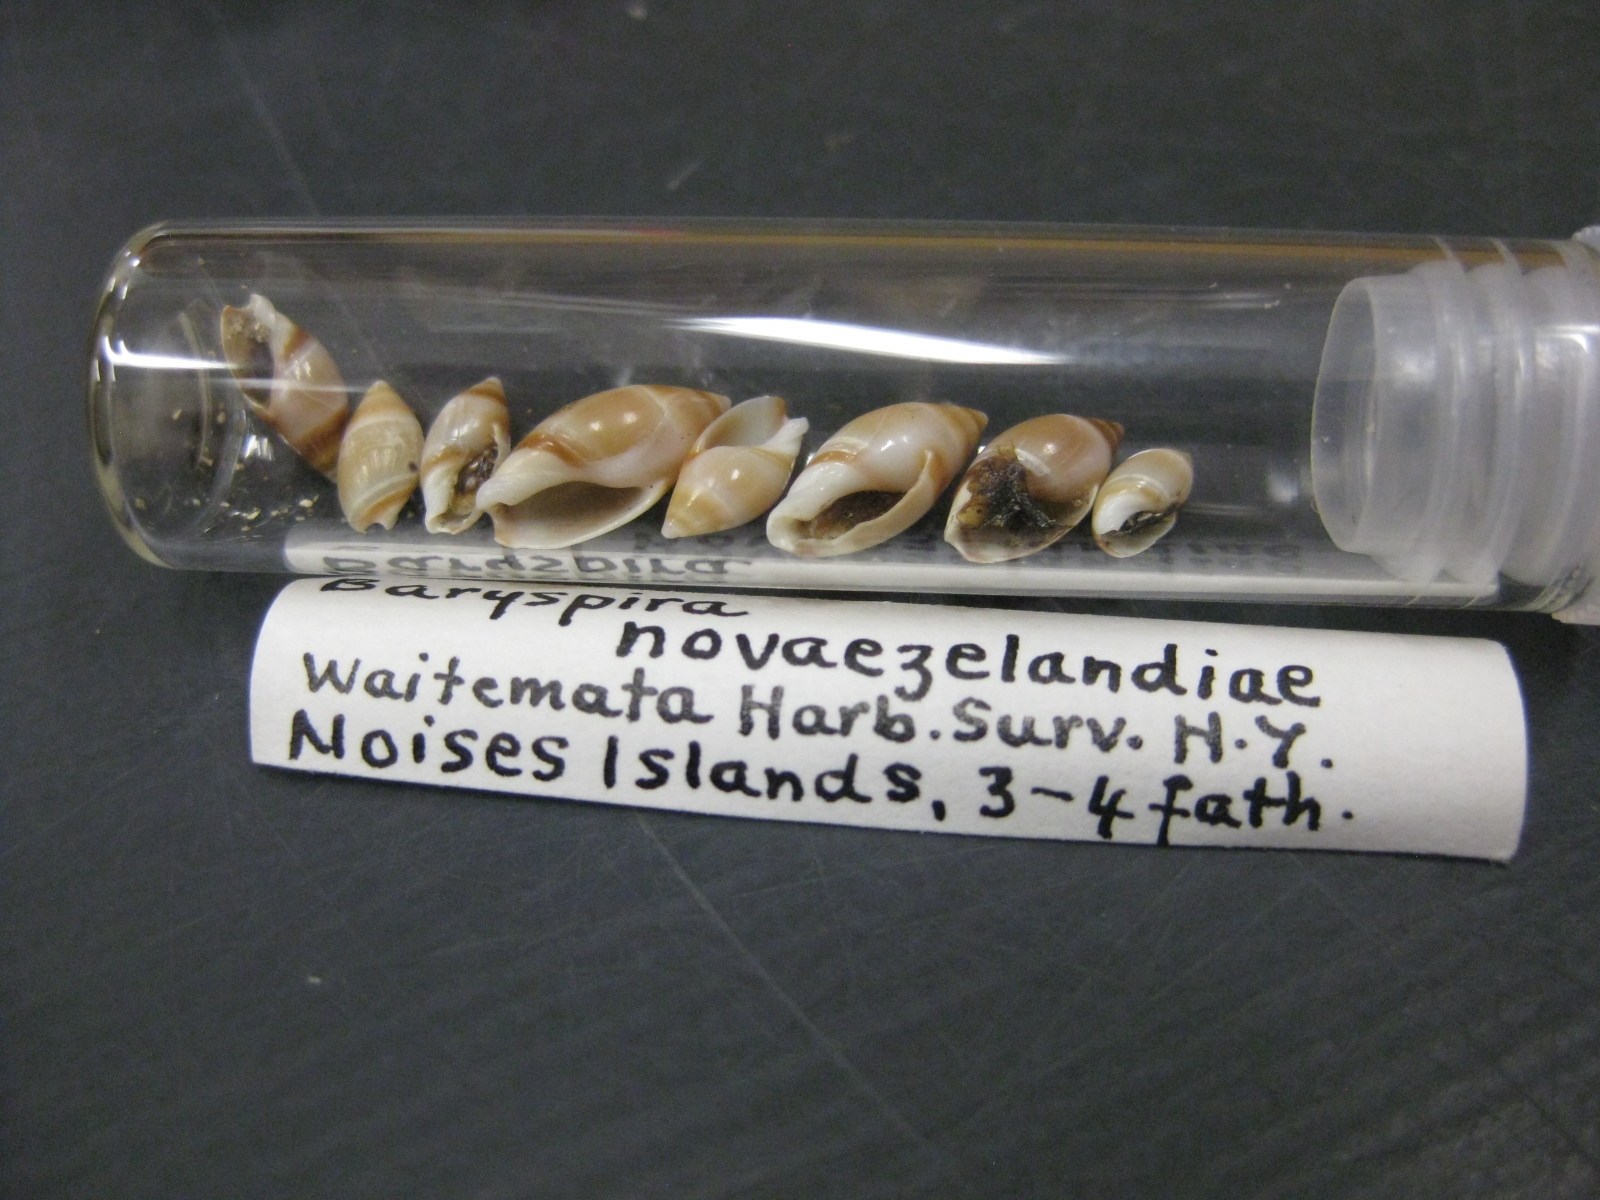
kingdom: Animalia
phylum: Mollusca
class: Gastropoda
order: Neogastropoda
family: Ancillariidae
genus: Amalda
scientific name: Amalda novaezelandiae
